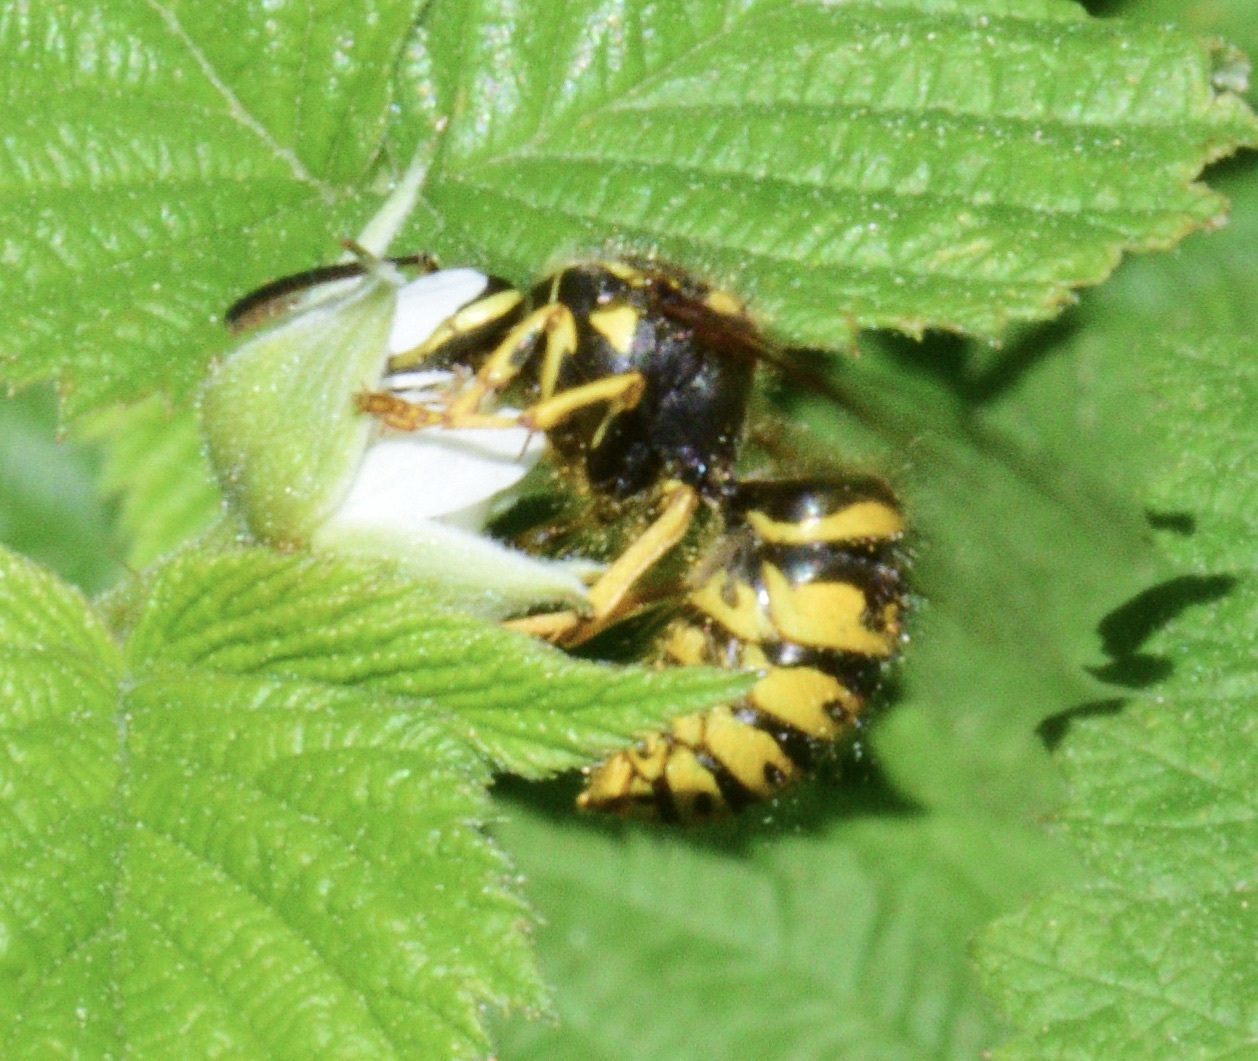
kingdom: Animalia
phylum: Arthropoda
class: Insecta
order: Hymenoptera
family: Vespidae
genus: Dolichovespula
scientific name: Dolichovespula arenaria
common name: Aerial yellowjacket
